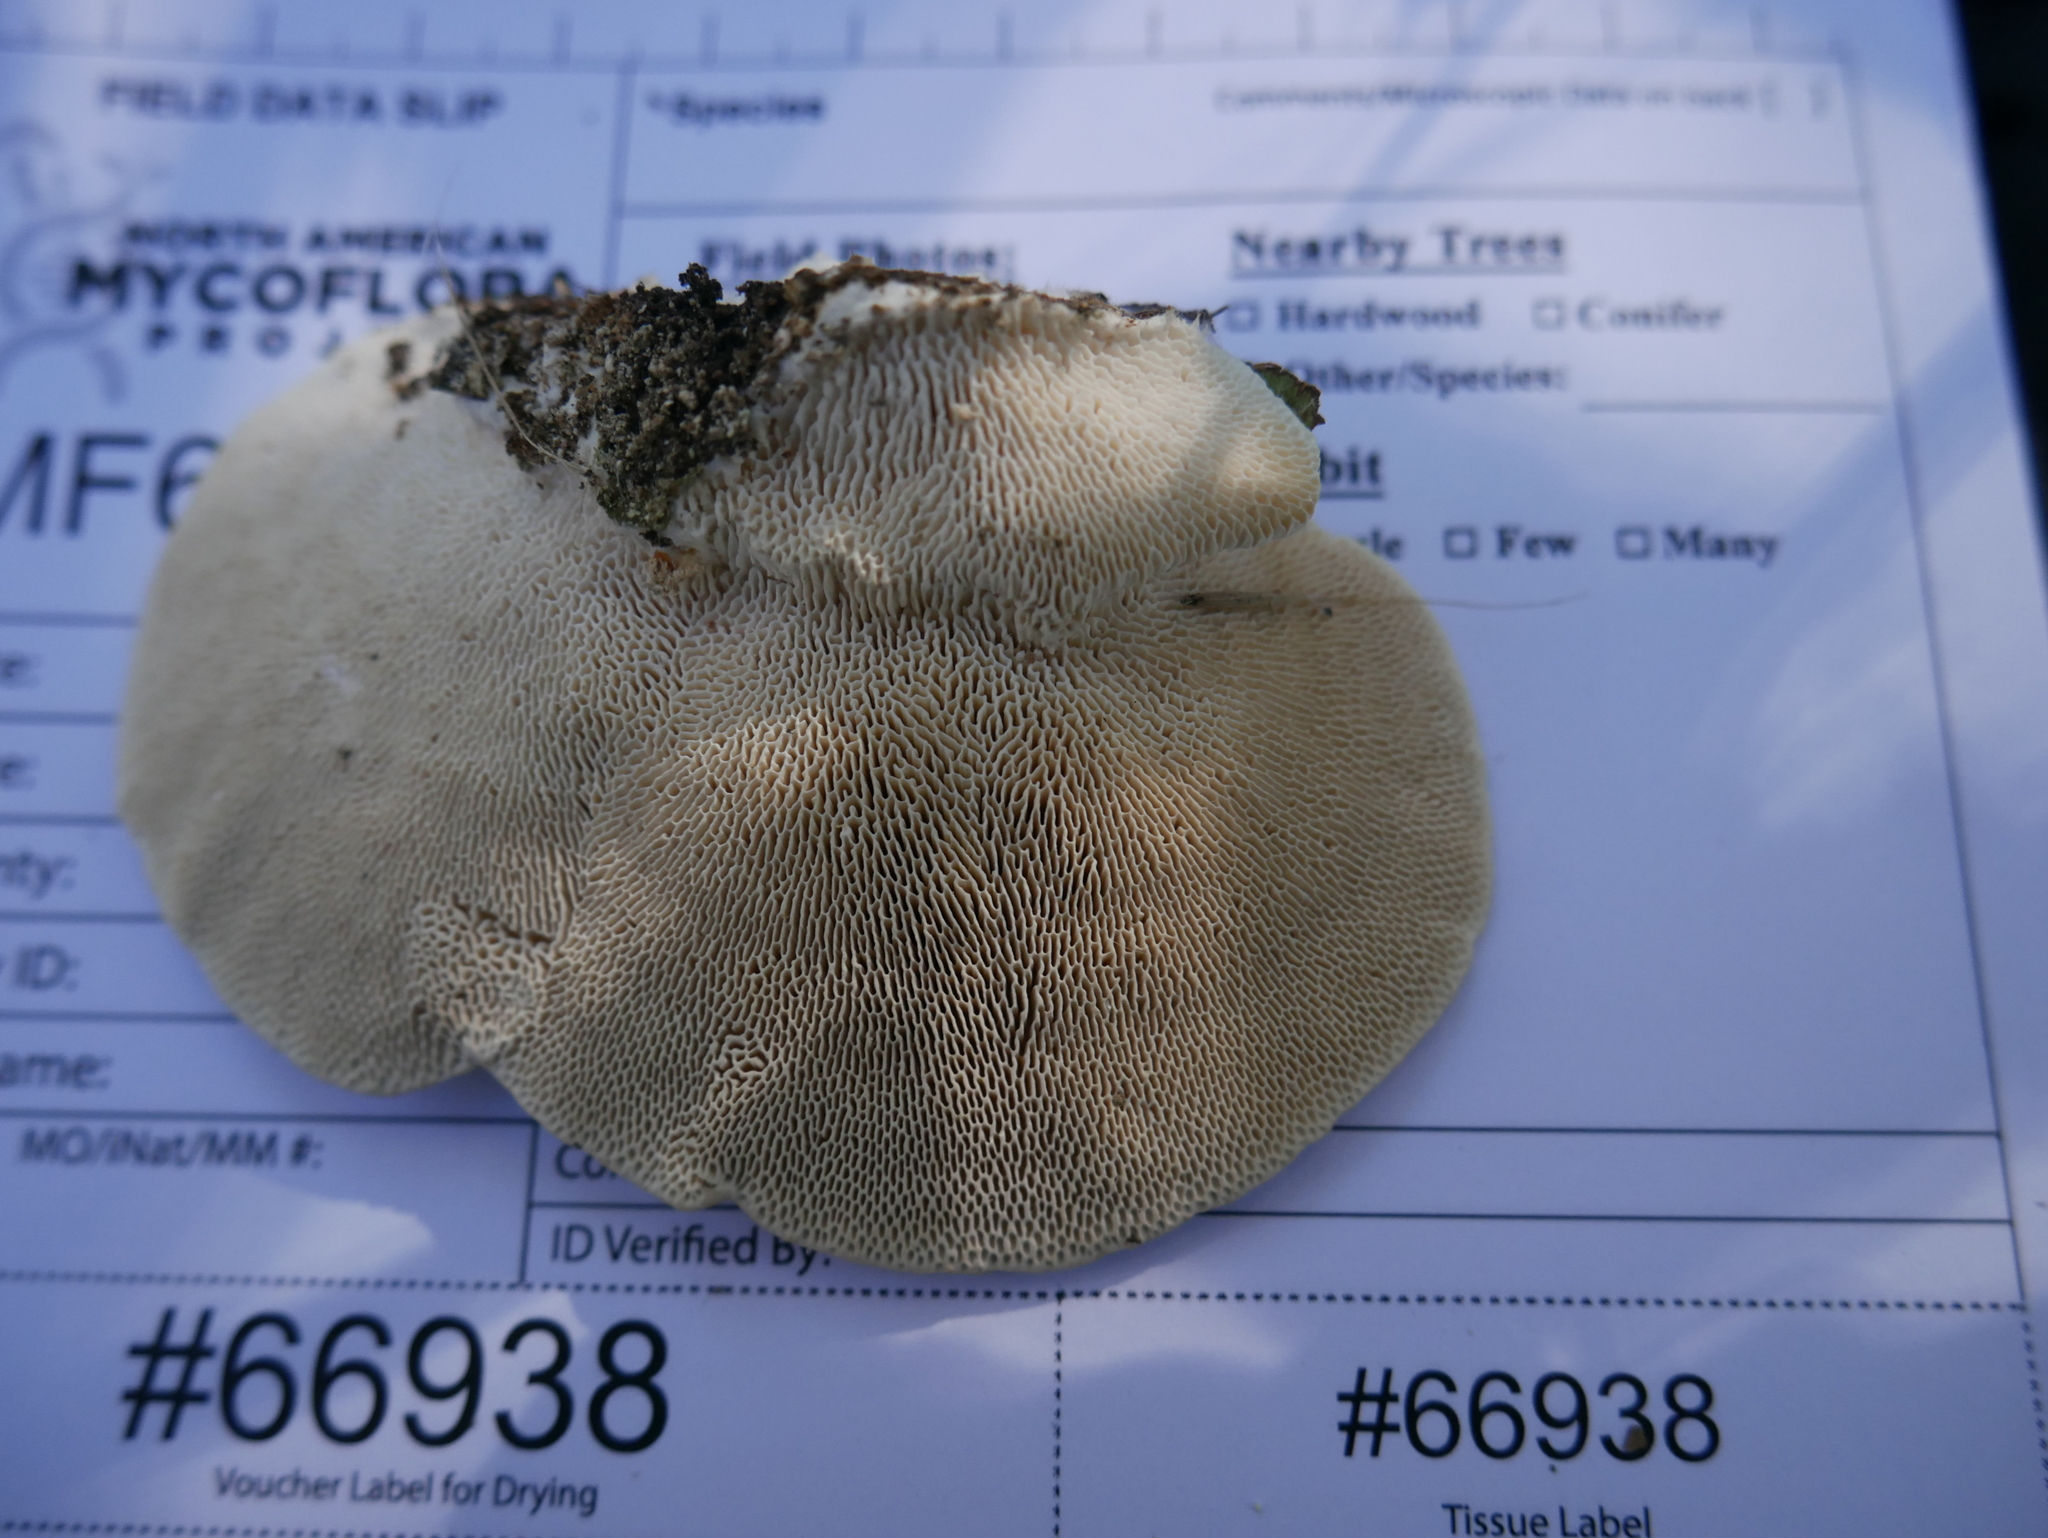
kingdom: Fungi
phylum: Basidiomycota
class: Agaricomycetes
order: Polyporales
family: Polyporaceae
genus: Trametes
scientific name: Trametes gibbosa
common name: Lumpy bracket
